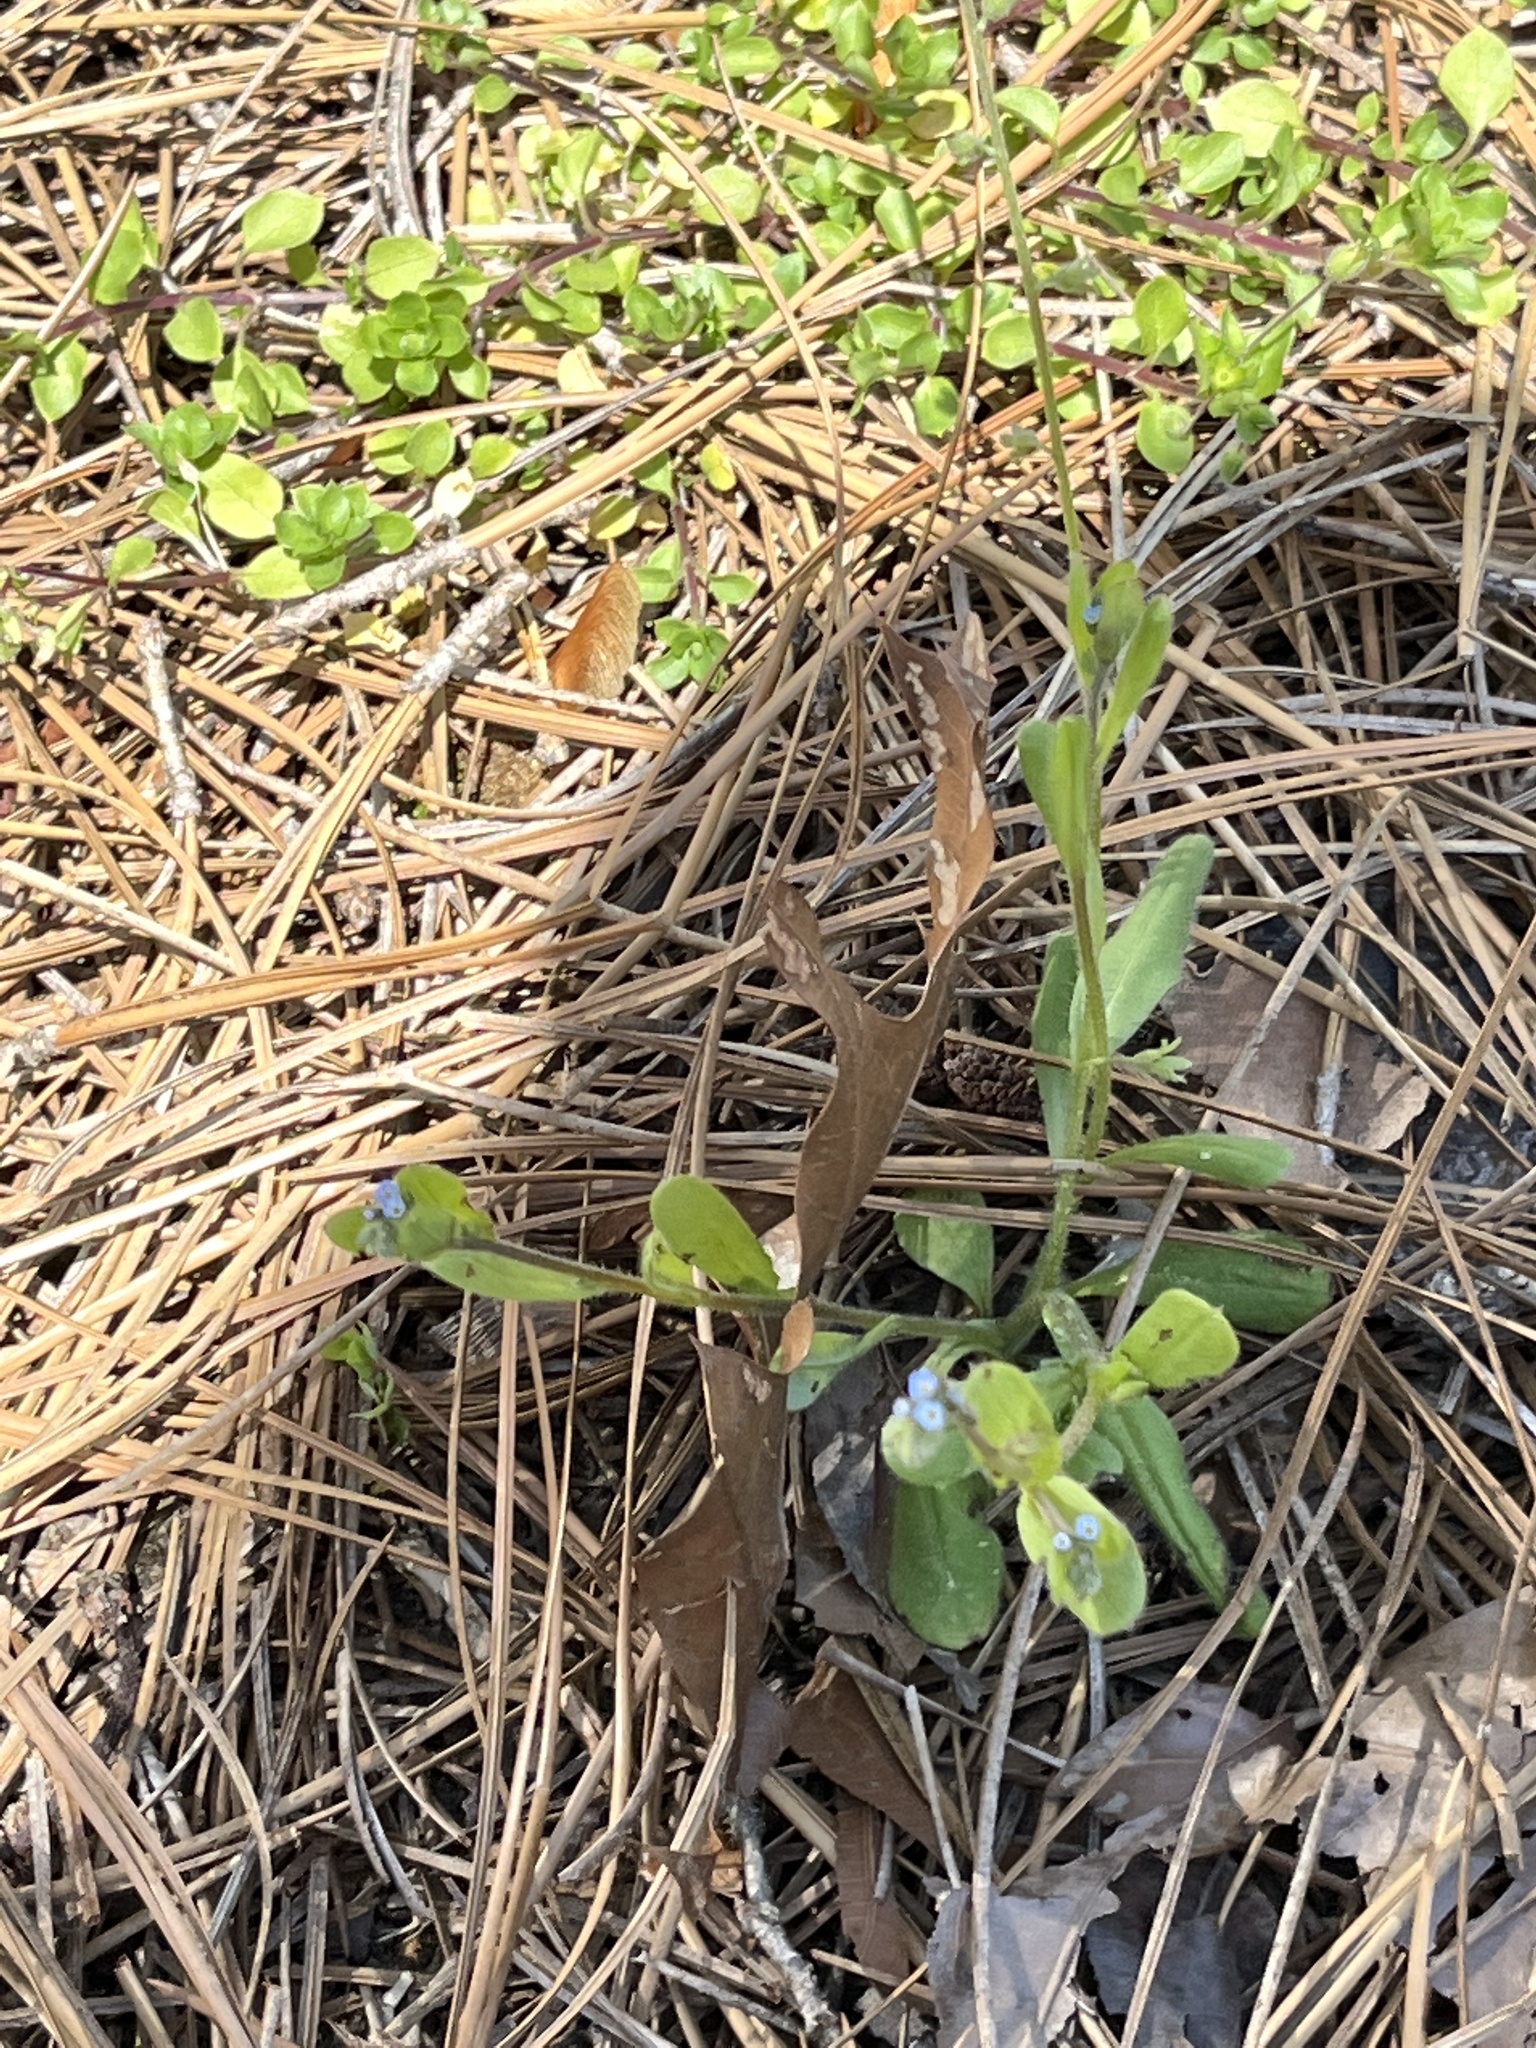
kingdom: Plantae
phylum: Tracheophyta
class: Magnoliopsida
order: Boraginales
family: Boraginaceae
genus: Myosotis
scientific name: Myosotis ramosissima
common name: Early forget-me-not
